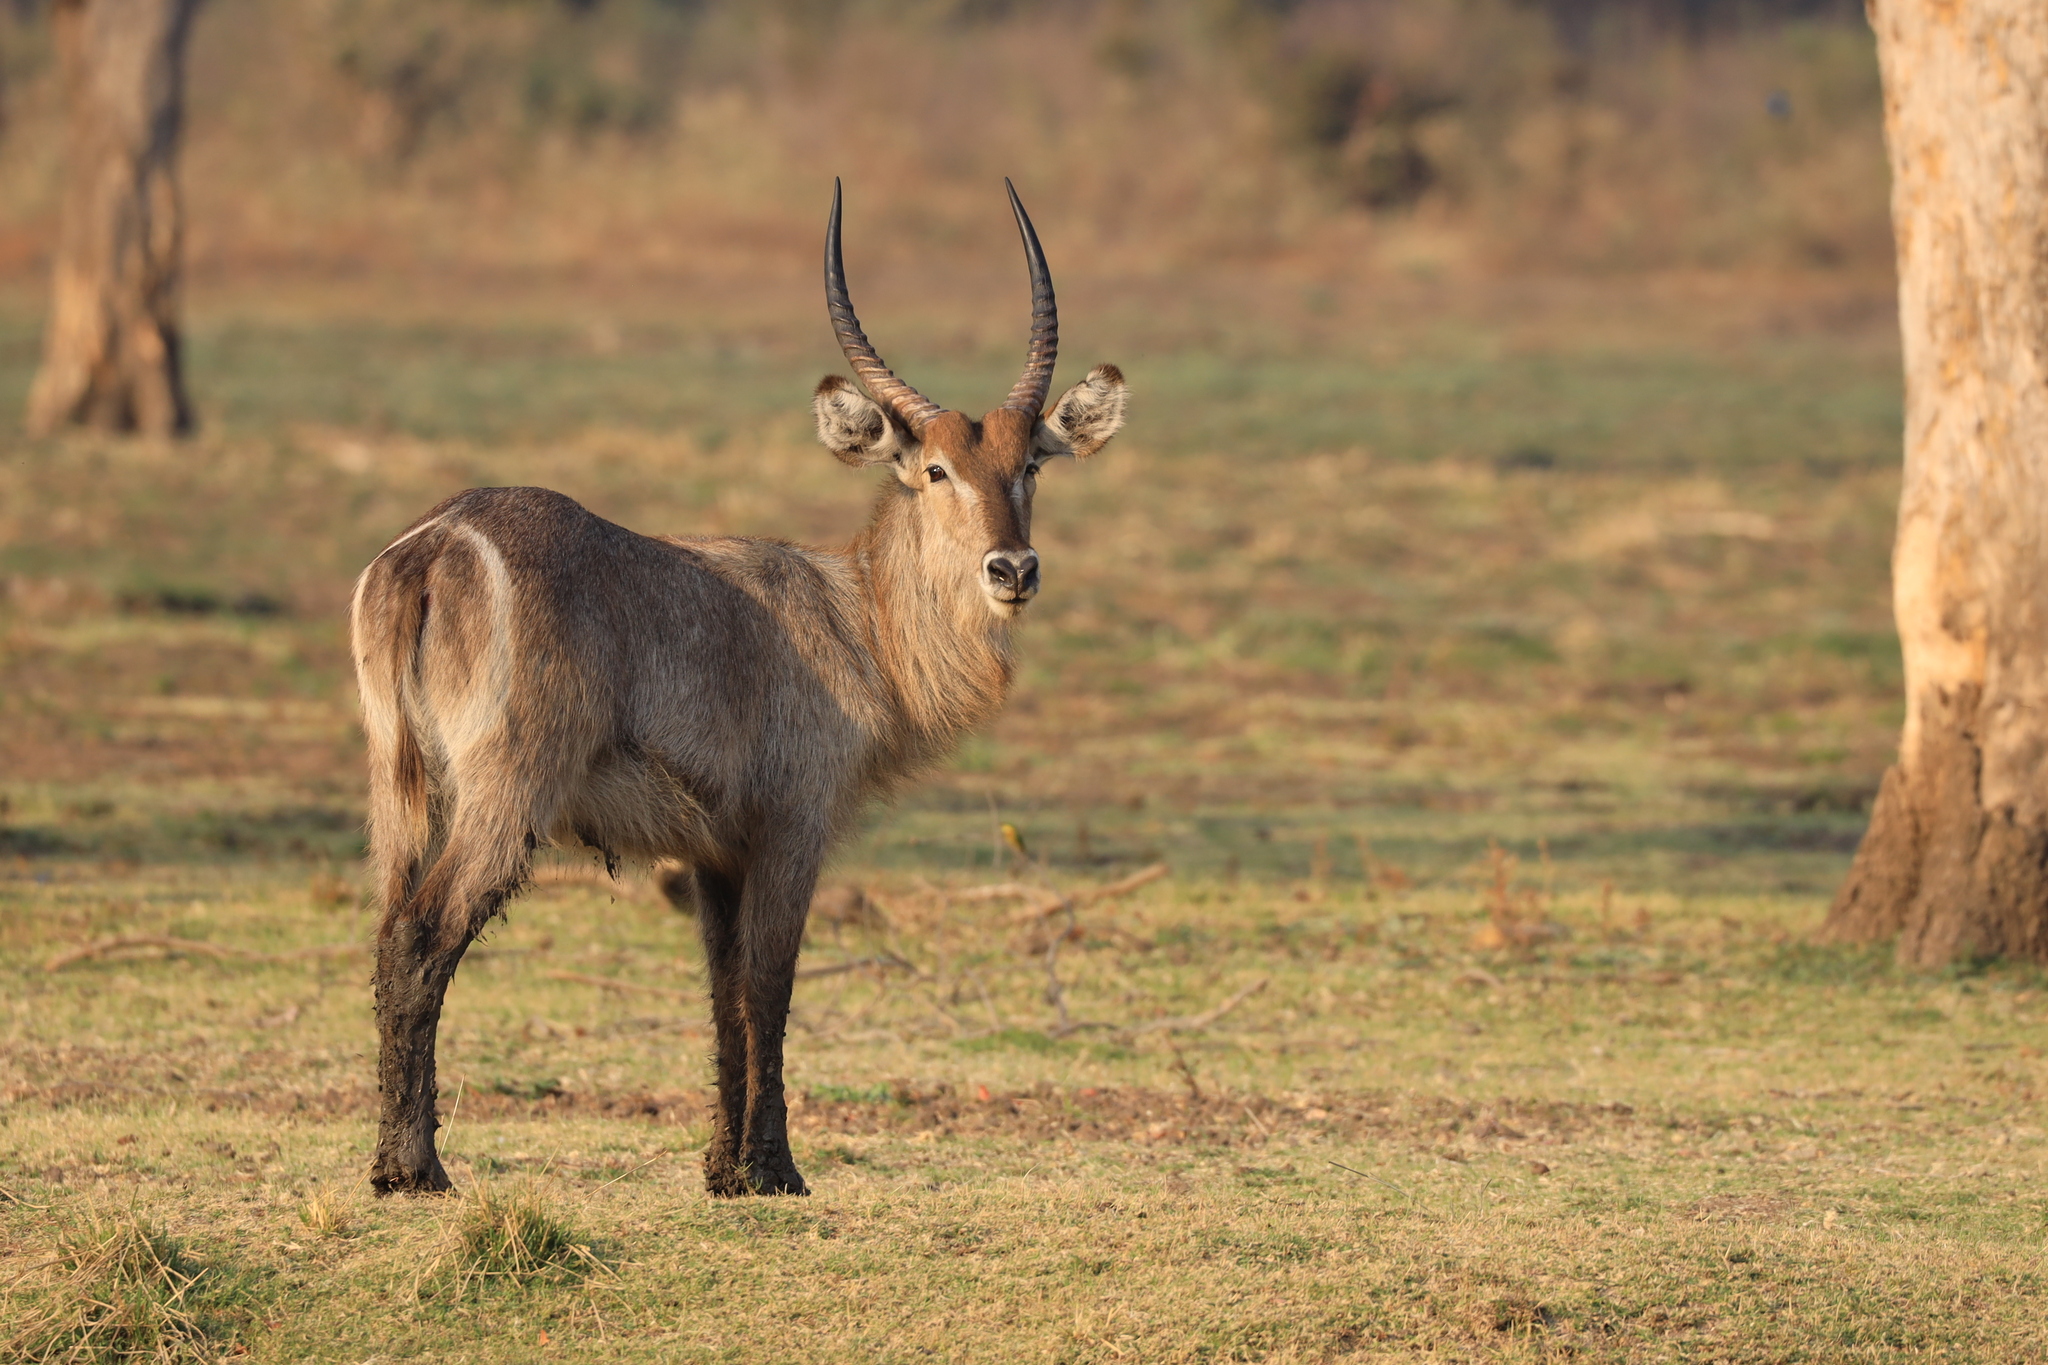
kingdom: Animalia
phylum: Chordata
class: Mammalia
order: Artiodactyla
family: Bovidae
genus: Kobus
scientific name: Kobus ellipsiprymnus
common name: Waterbuck
